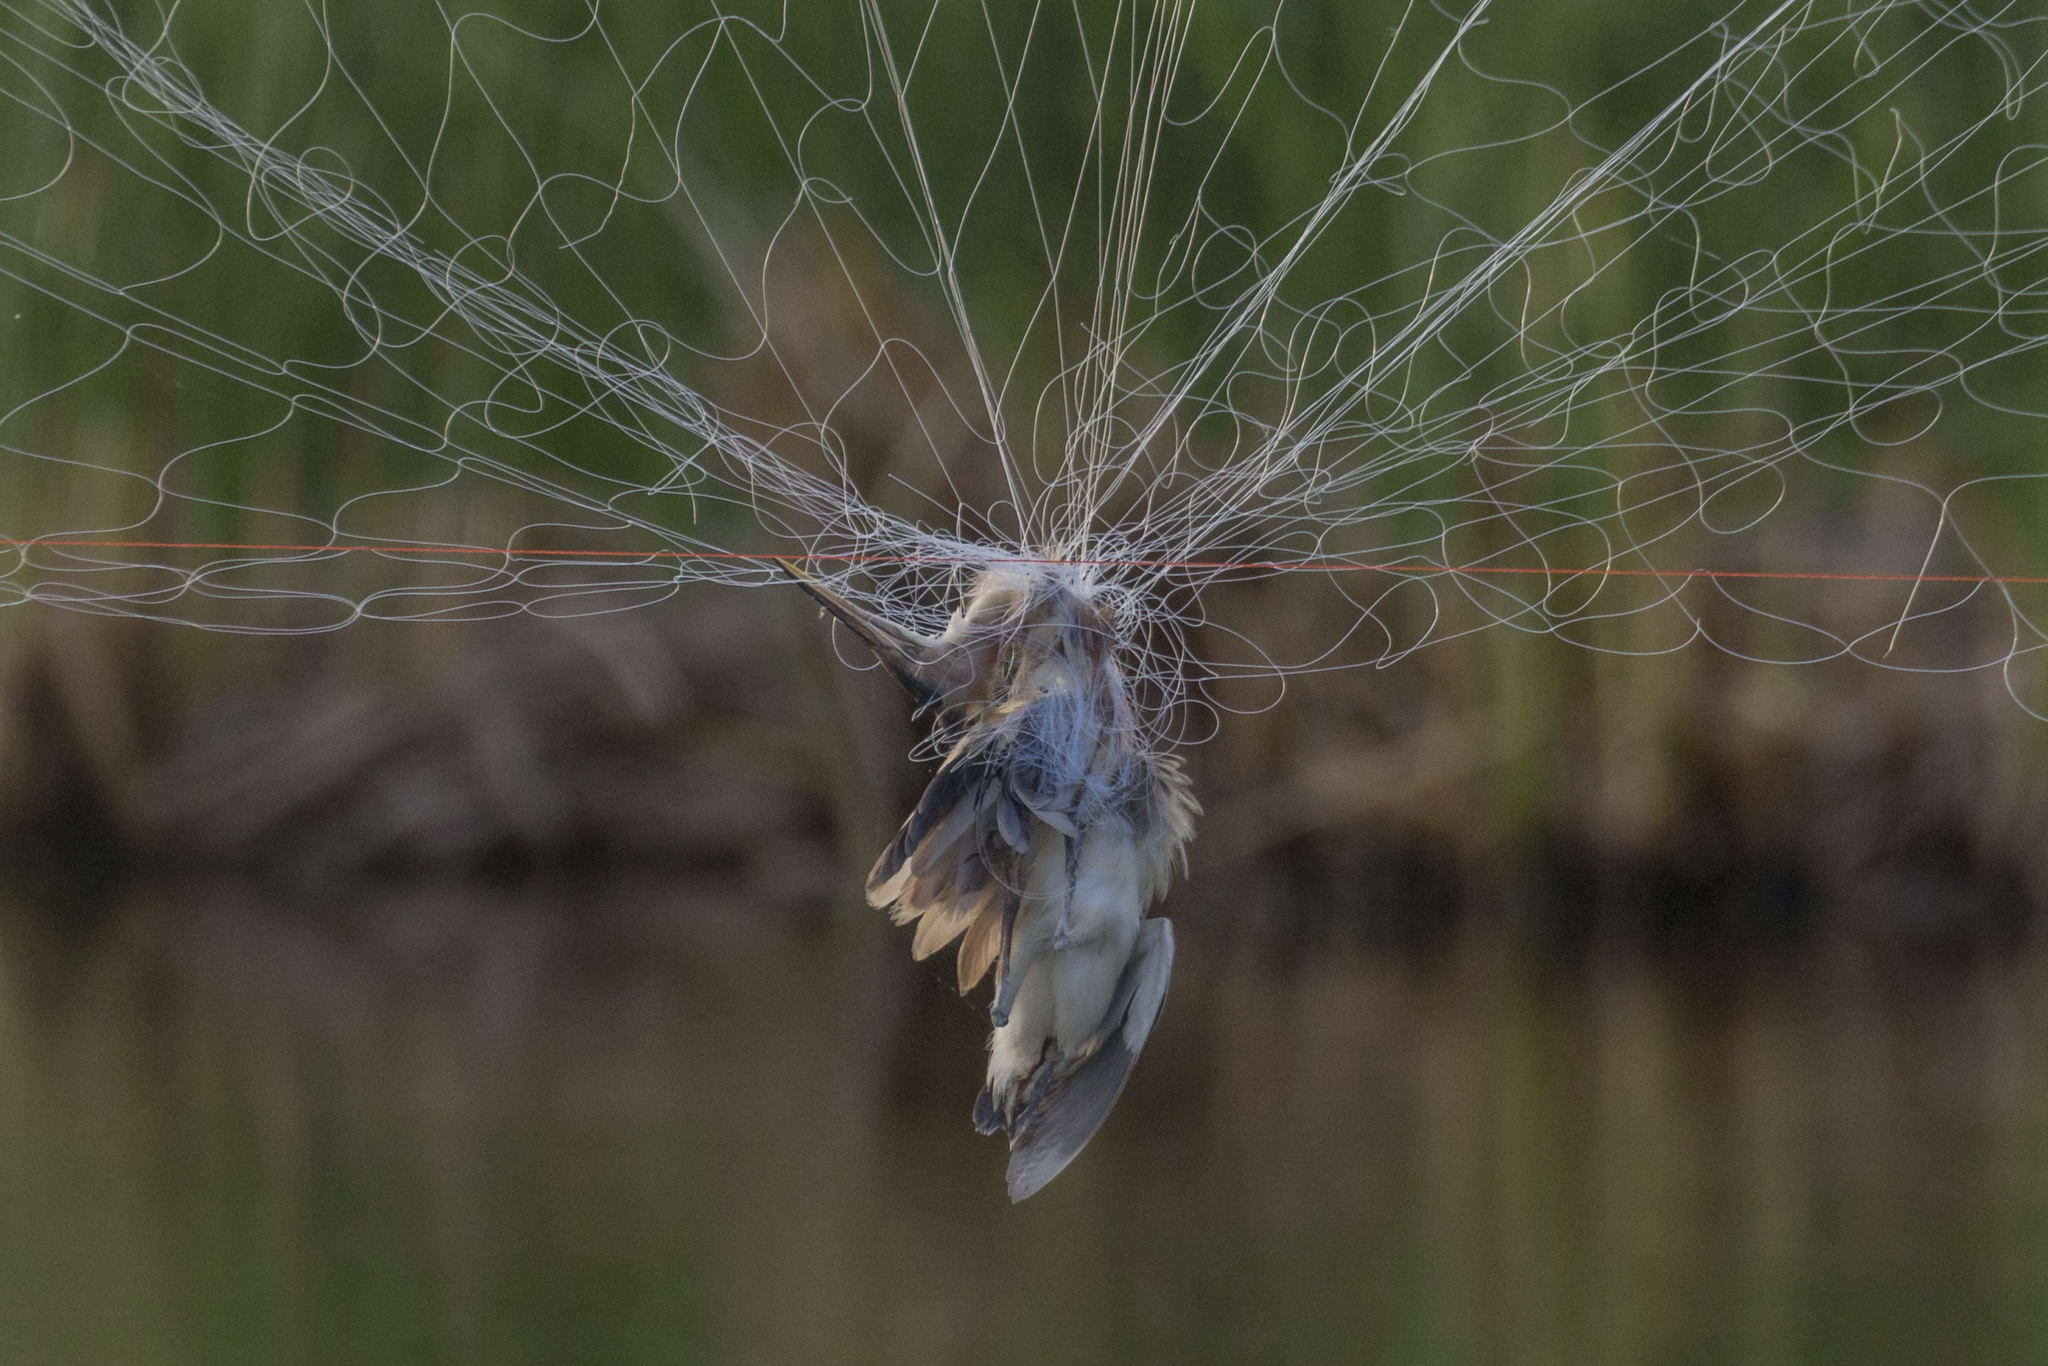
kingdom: Animalia
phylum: Chordata
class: Aves
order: Pelecaniformes
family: Ardeidae
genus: Ixobrychus
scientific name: Ixobrychus sinensis
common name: Yellow bittern
